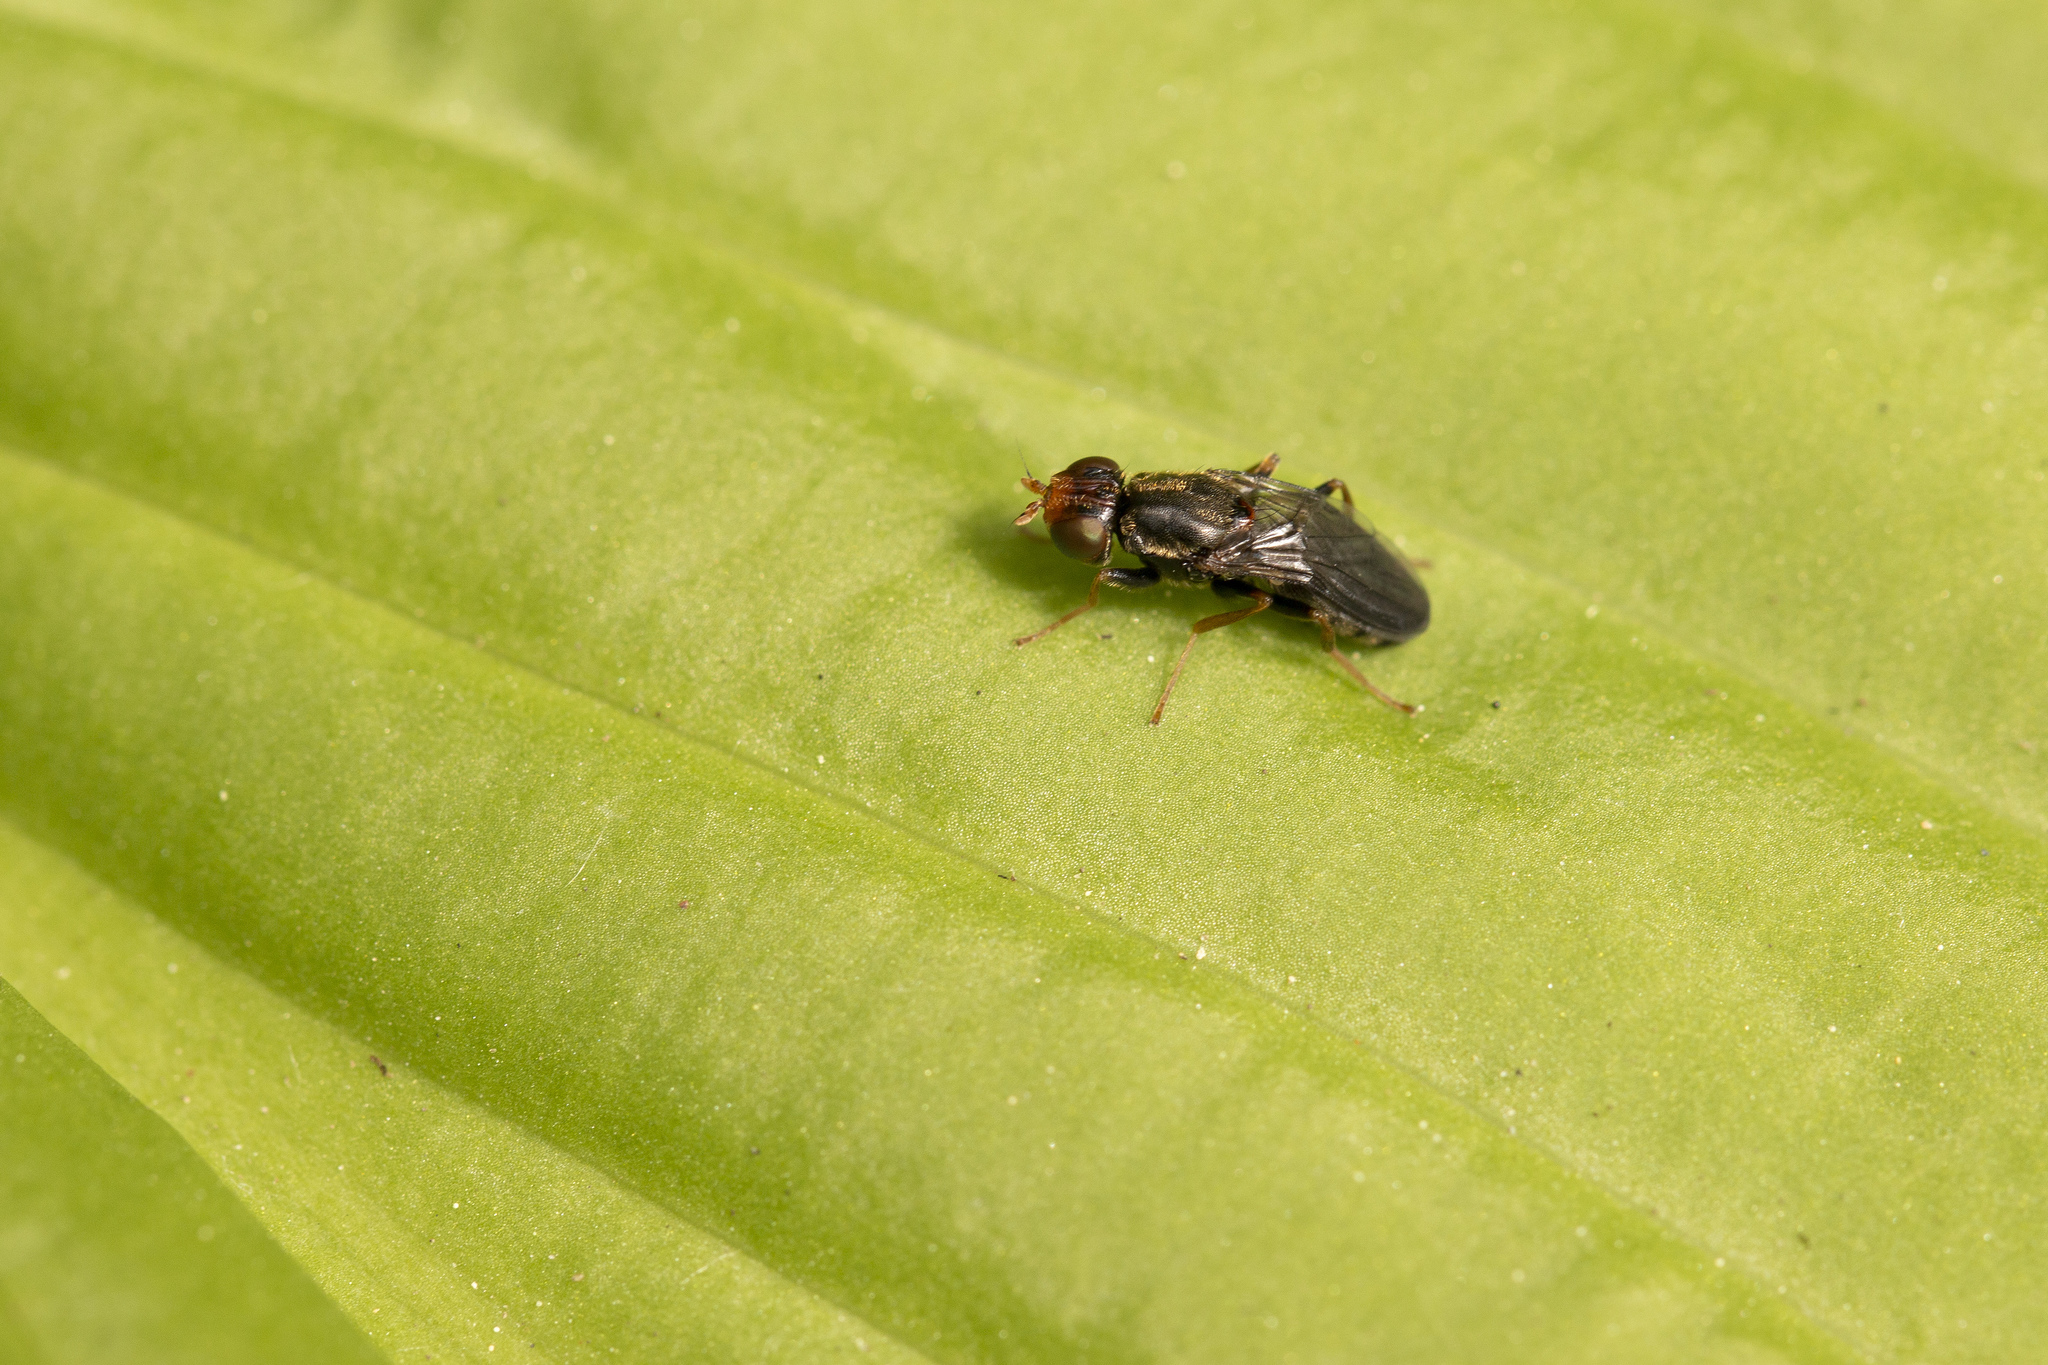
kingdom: Animalia
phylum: Arthropoda
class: Insecta
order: Diptera
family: Psilidae
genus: Chyliza
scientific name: Chyliza leguminicola
